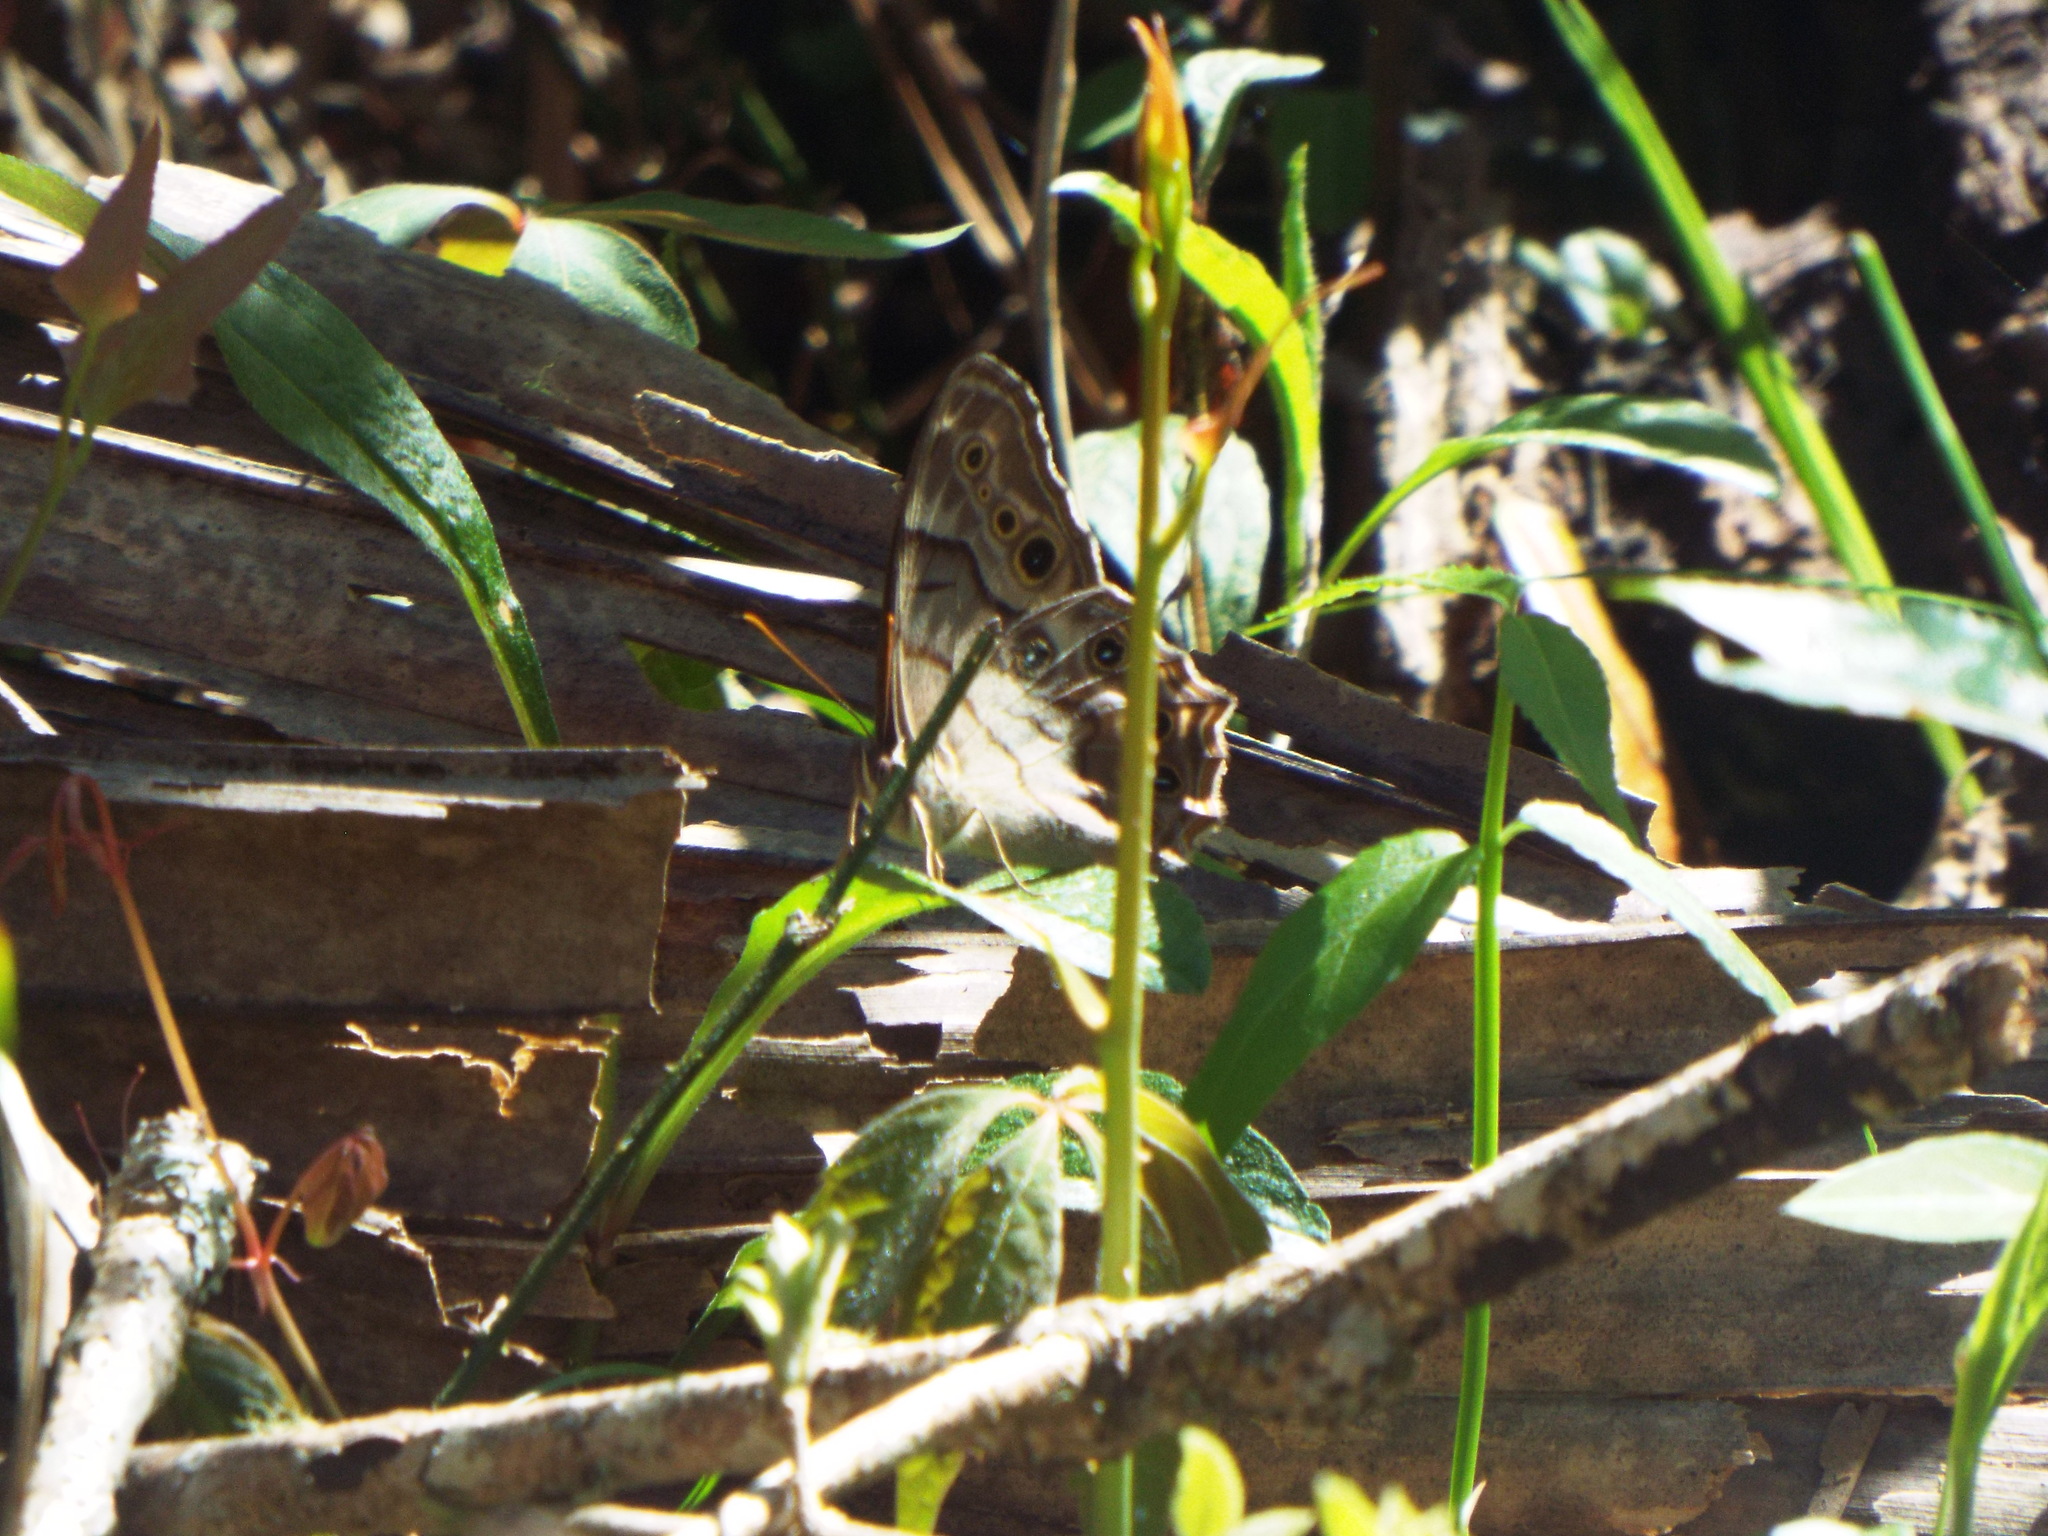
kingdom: Animalia
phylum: Arthropoda
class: Insecta
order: Lepidoptera
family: Nymphalidae
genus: Enodia
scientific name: Enodia portlandia
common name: Southern pearly-eye
